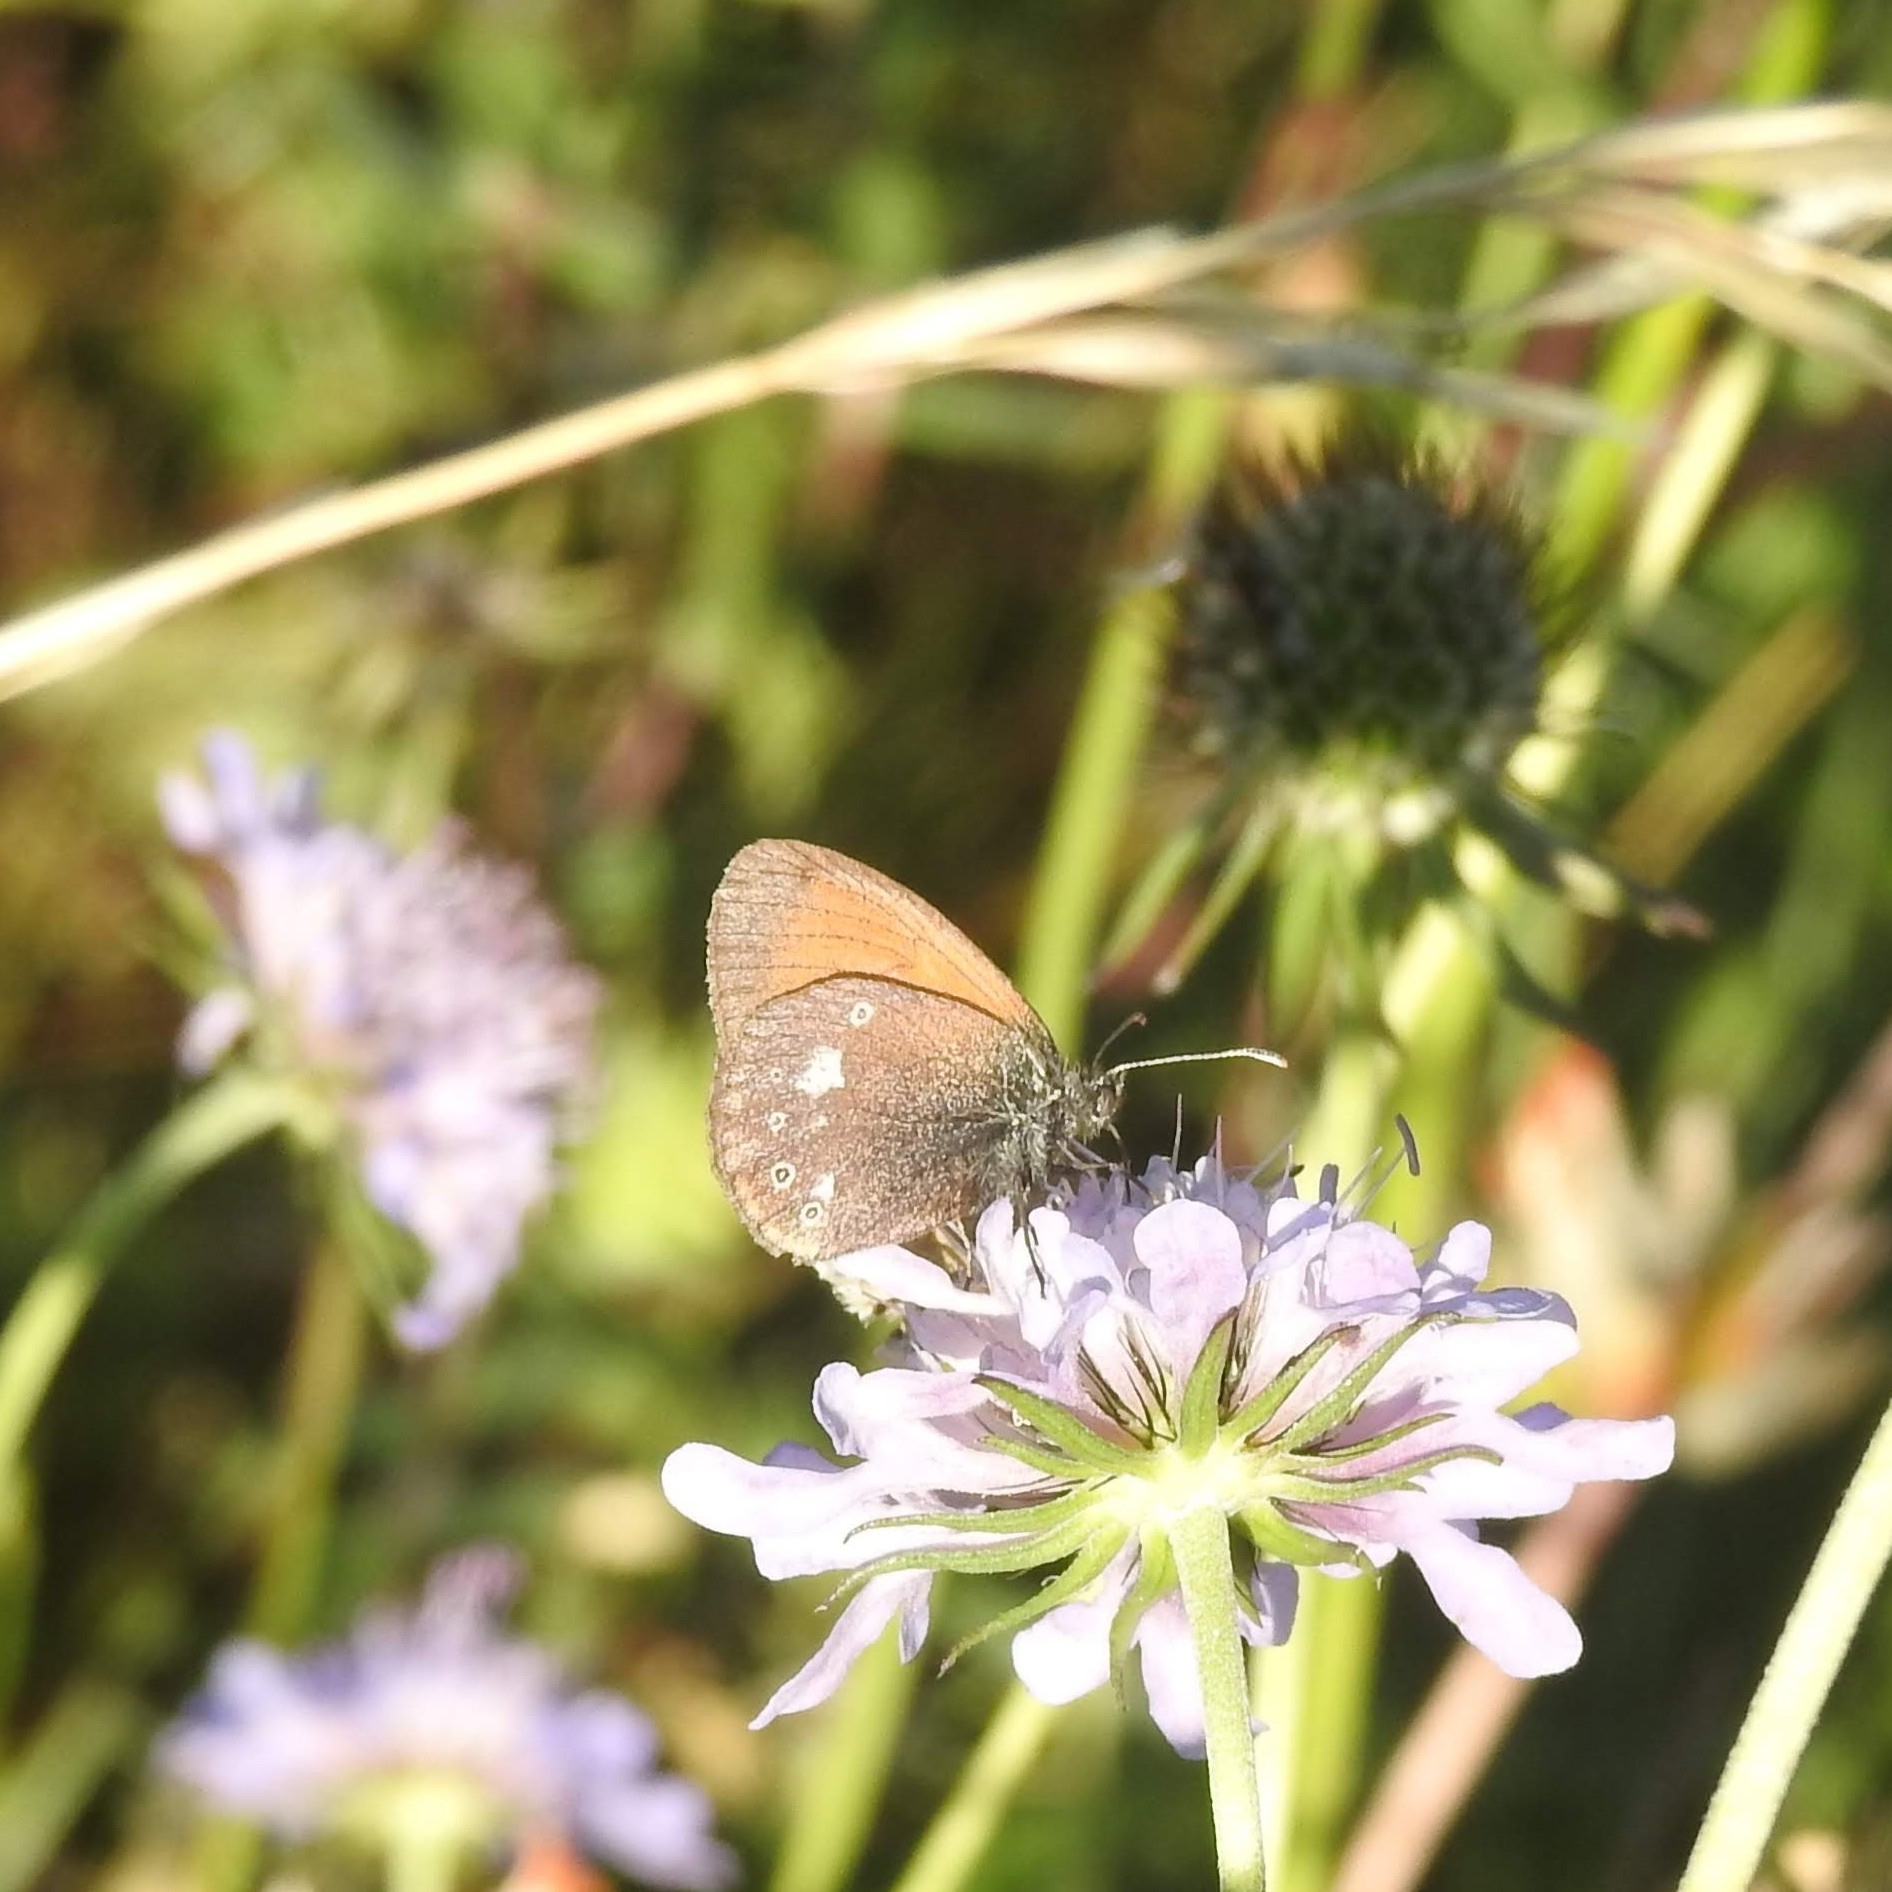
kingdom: Animalia
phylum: Arthropoda
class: Insecta
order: Lepidoptera
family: Nymphalidae
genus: Coenonympha
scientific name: Coenonympha iphis
